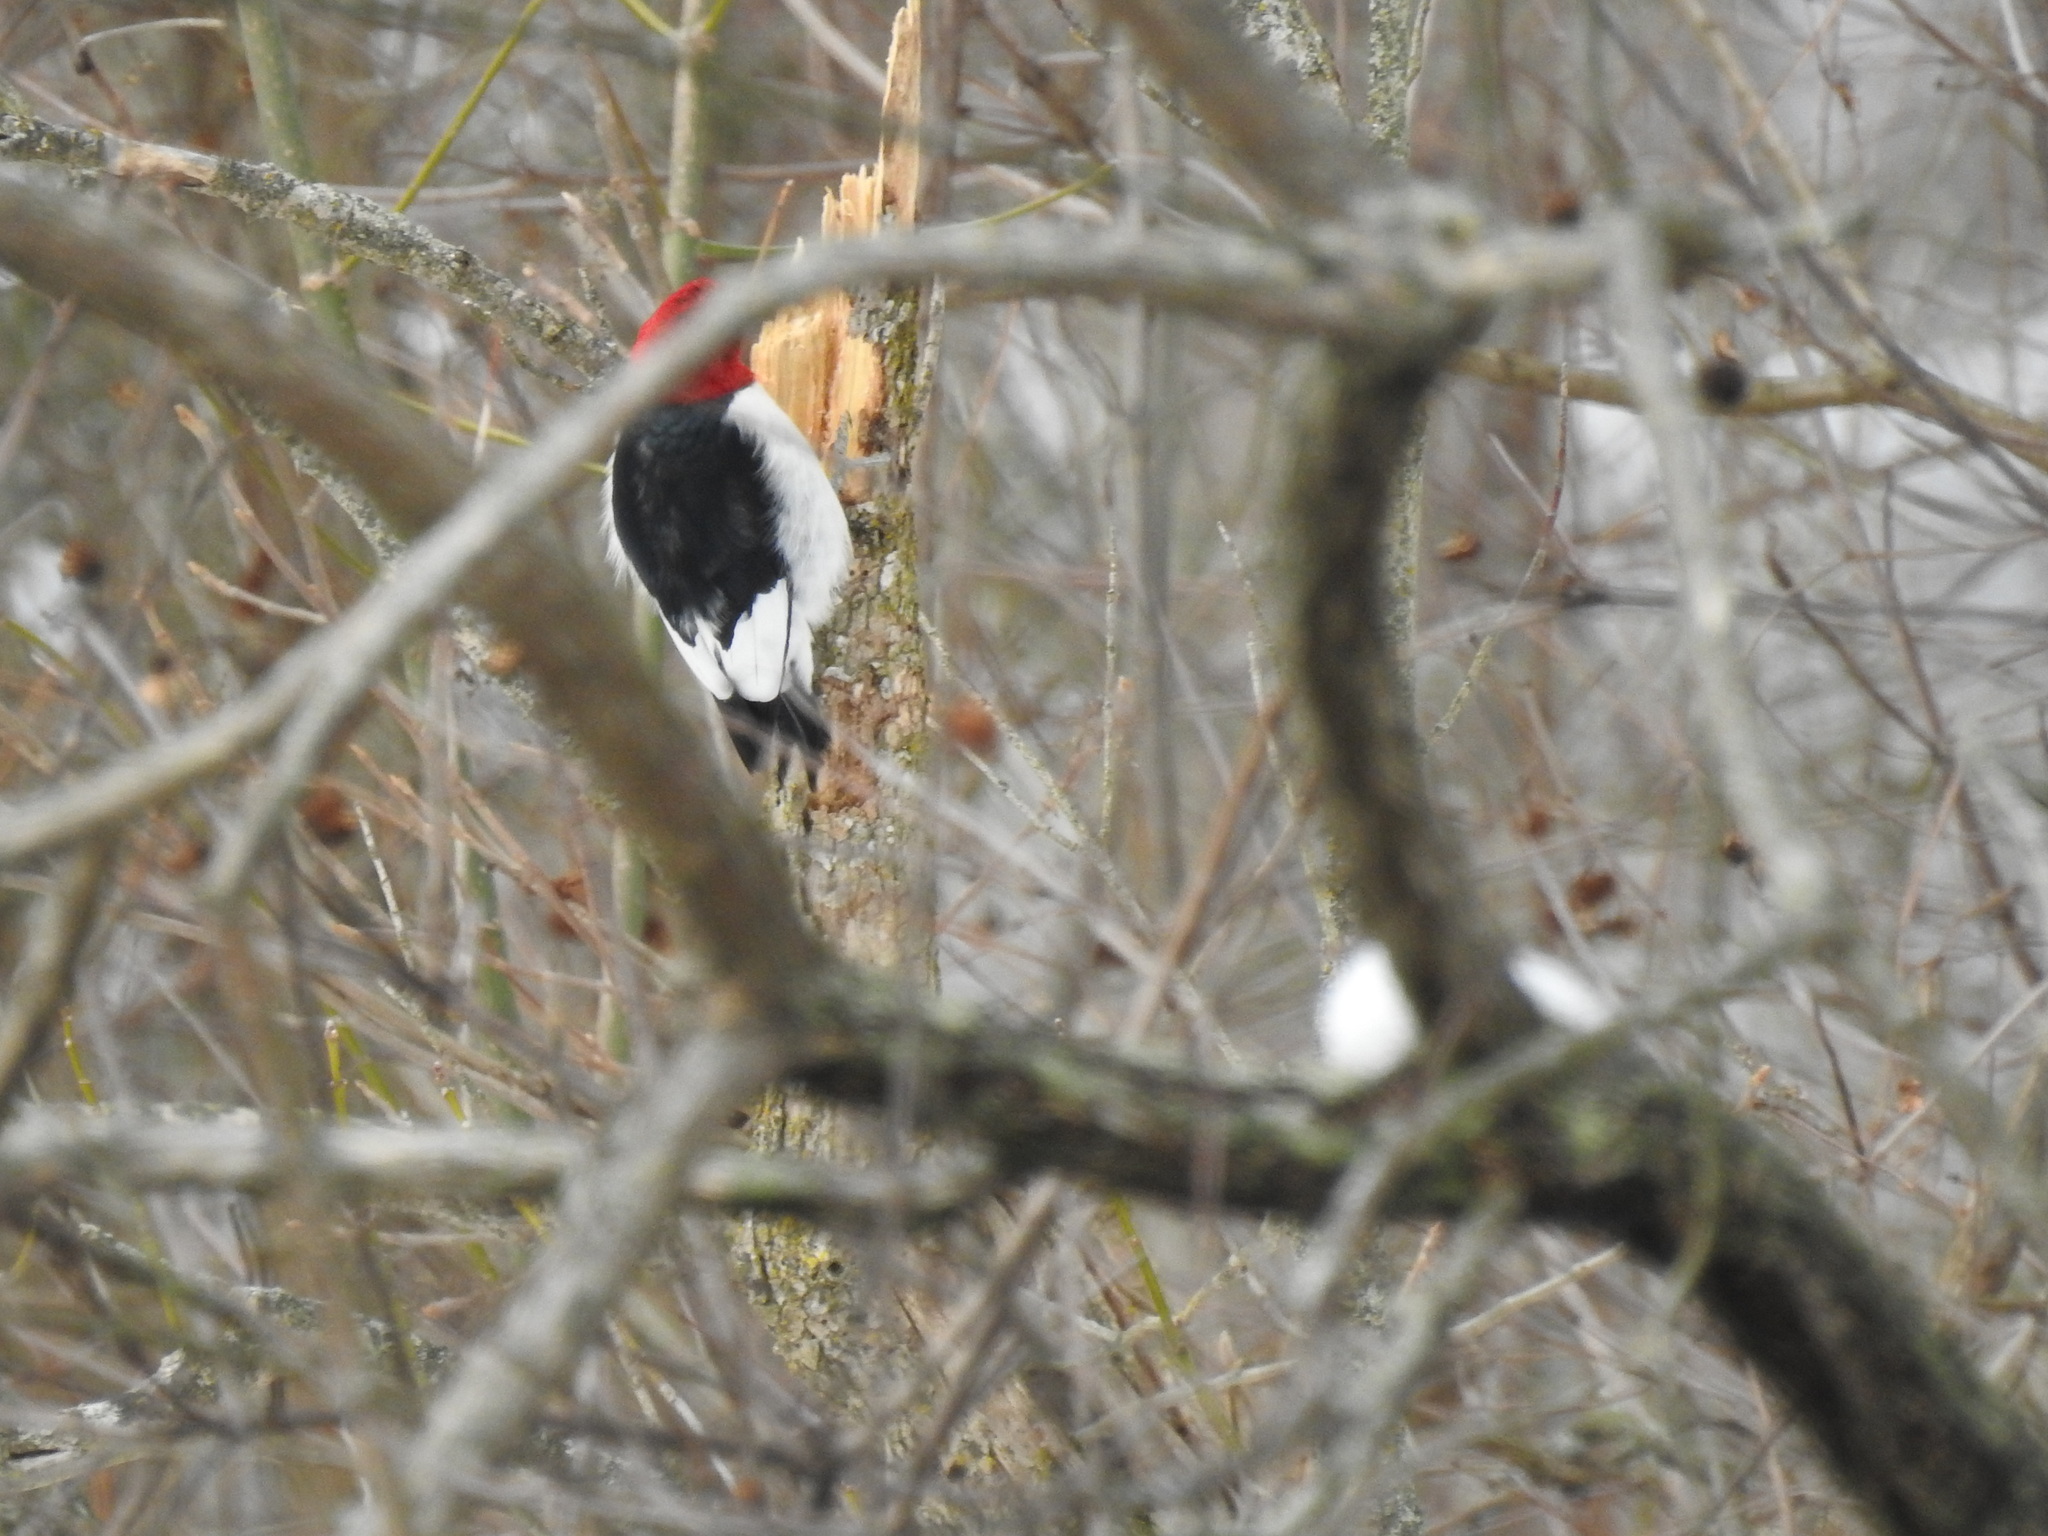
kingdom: Animalia
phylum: Chordata
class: Aves
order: Piciformes
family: Picidae
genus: Melanerpes
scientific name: Melanerpes erythrocephalus
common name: Red-headed woodpecker
